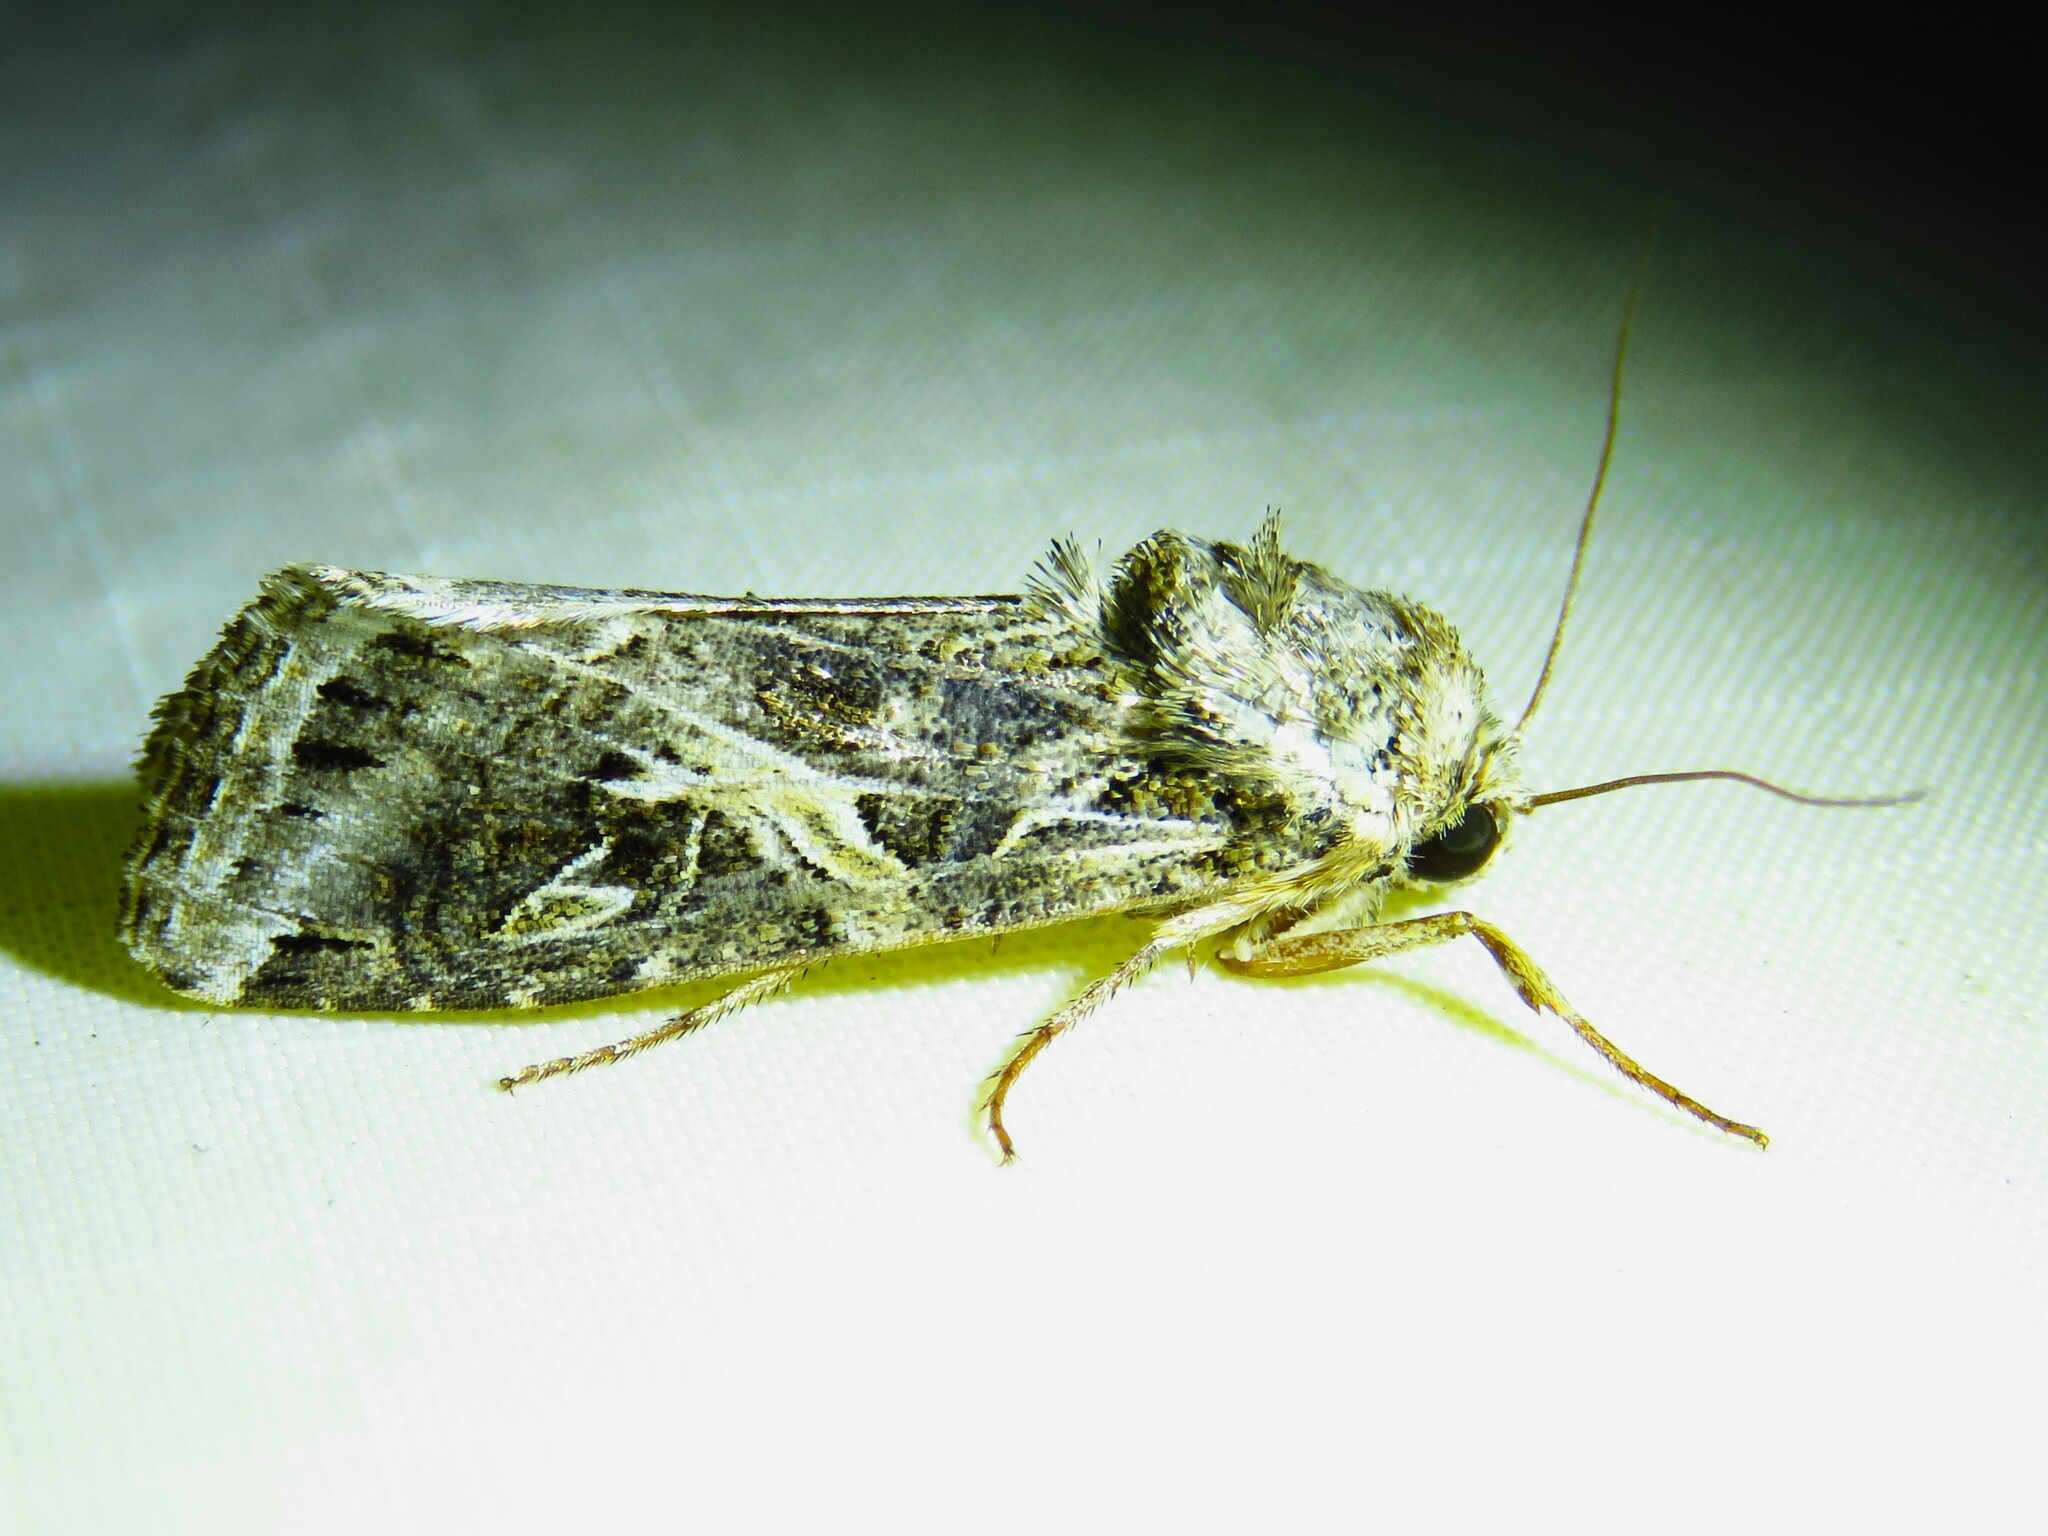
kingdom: Animalia
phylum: Arthropoda
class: Insecta
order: Lepidoptera
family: Noctuidae
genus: Spodoptera
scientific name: Spodoptera ornithogalli
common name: Yellow-striped armyworm
